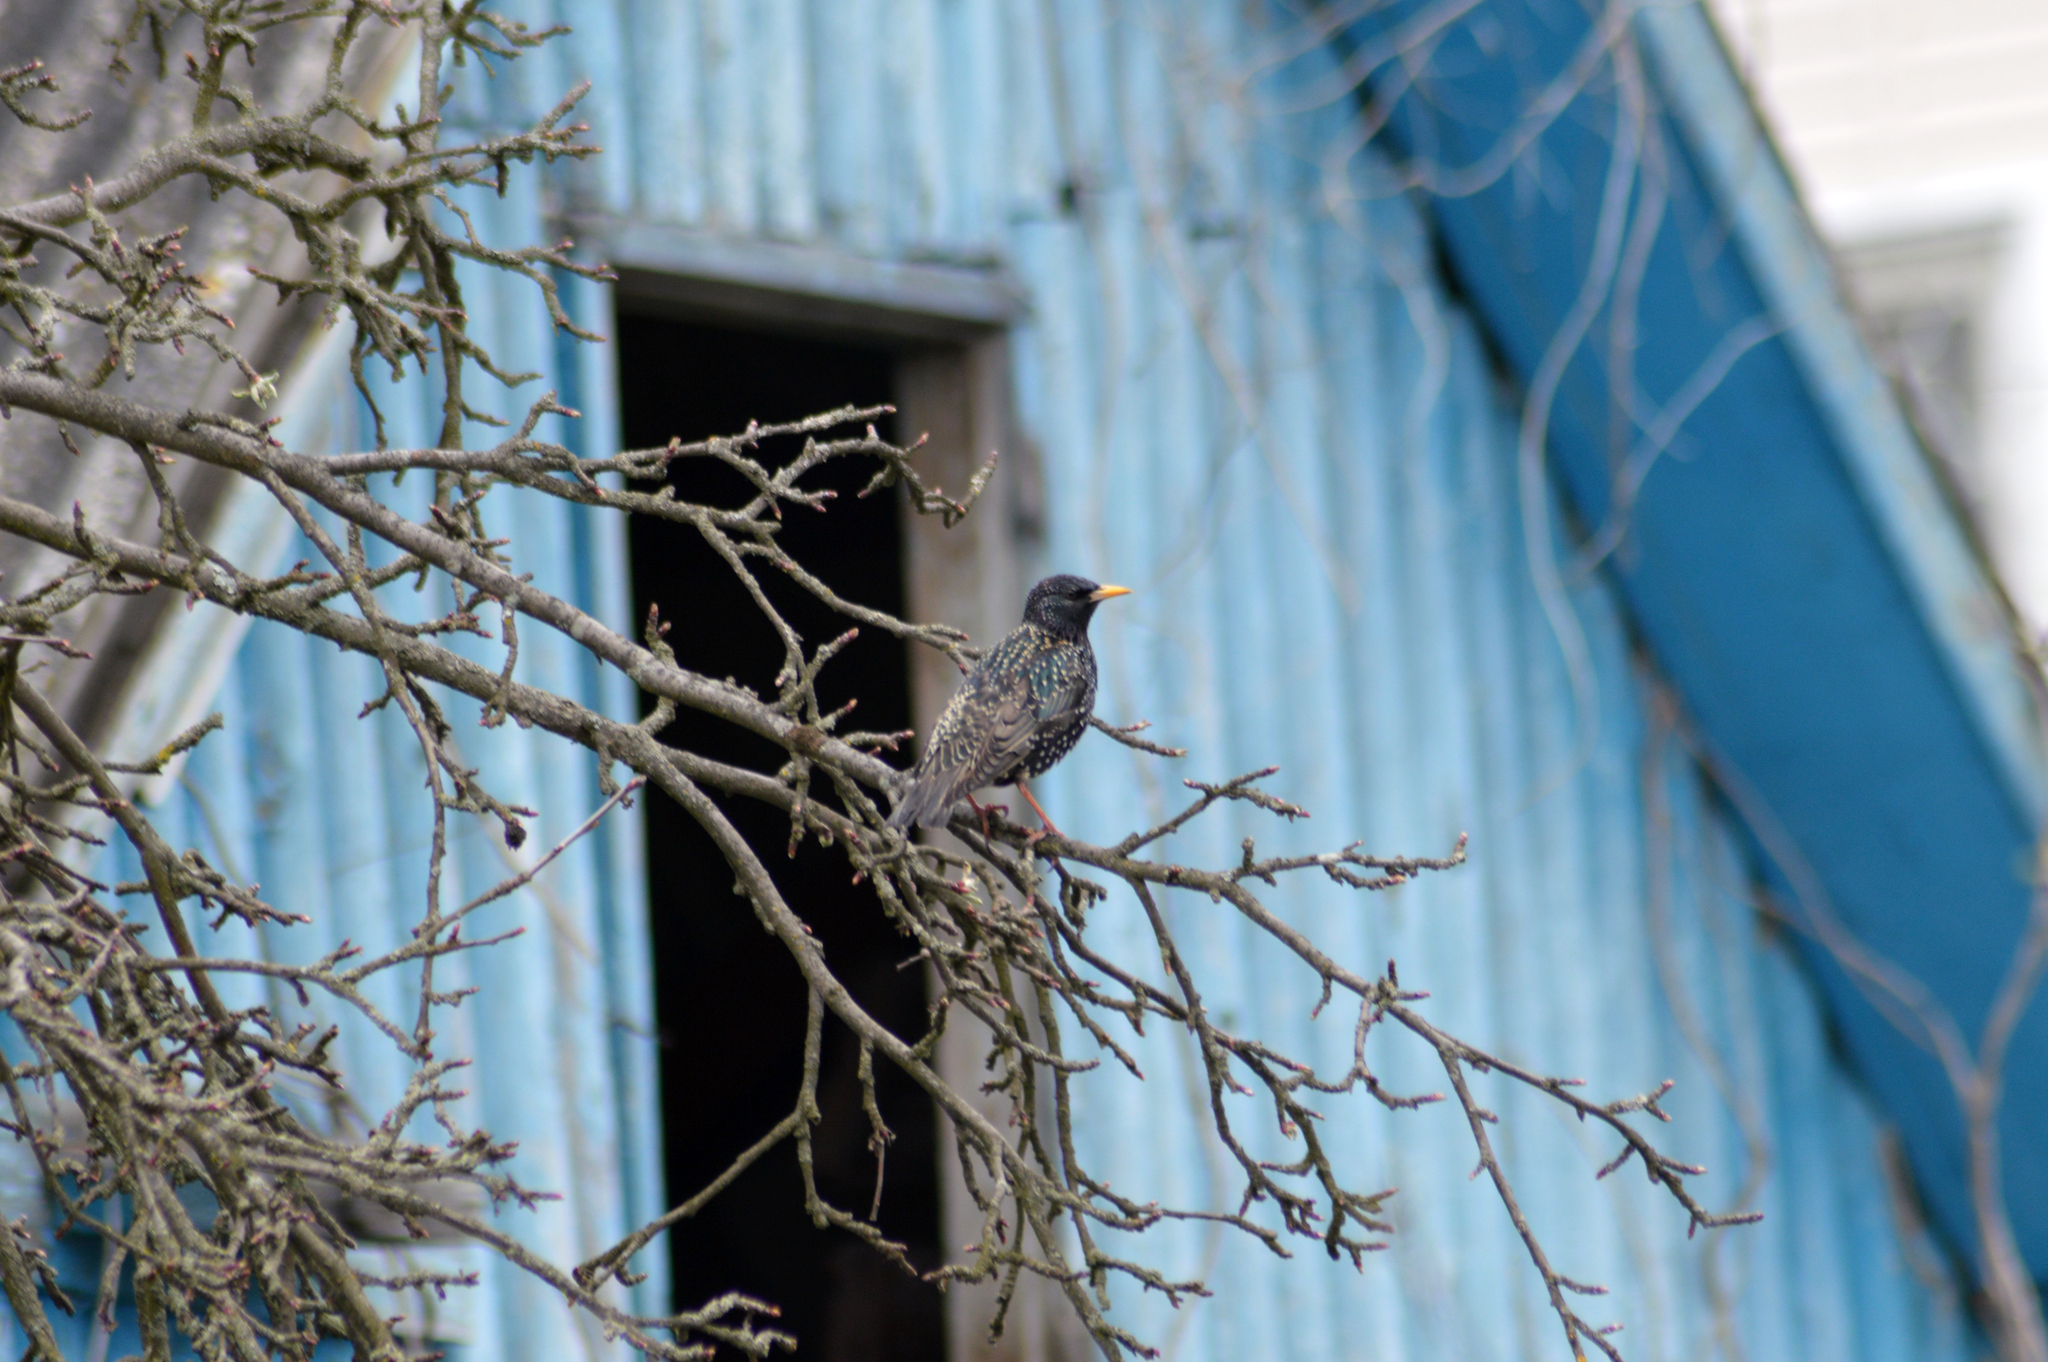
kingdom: Animalia
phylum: Chordata
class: Aves
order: Passeriformes
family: Sturnidae
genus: Sturnus
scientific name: Sturnus vulgaris
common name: Common starling
